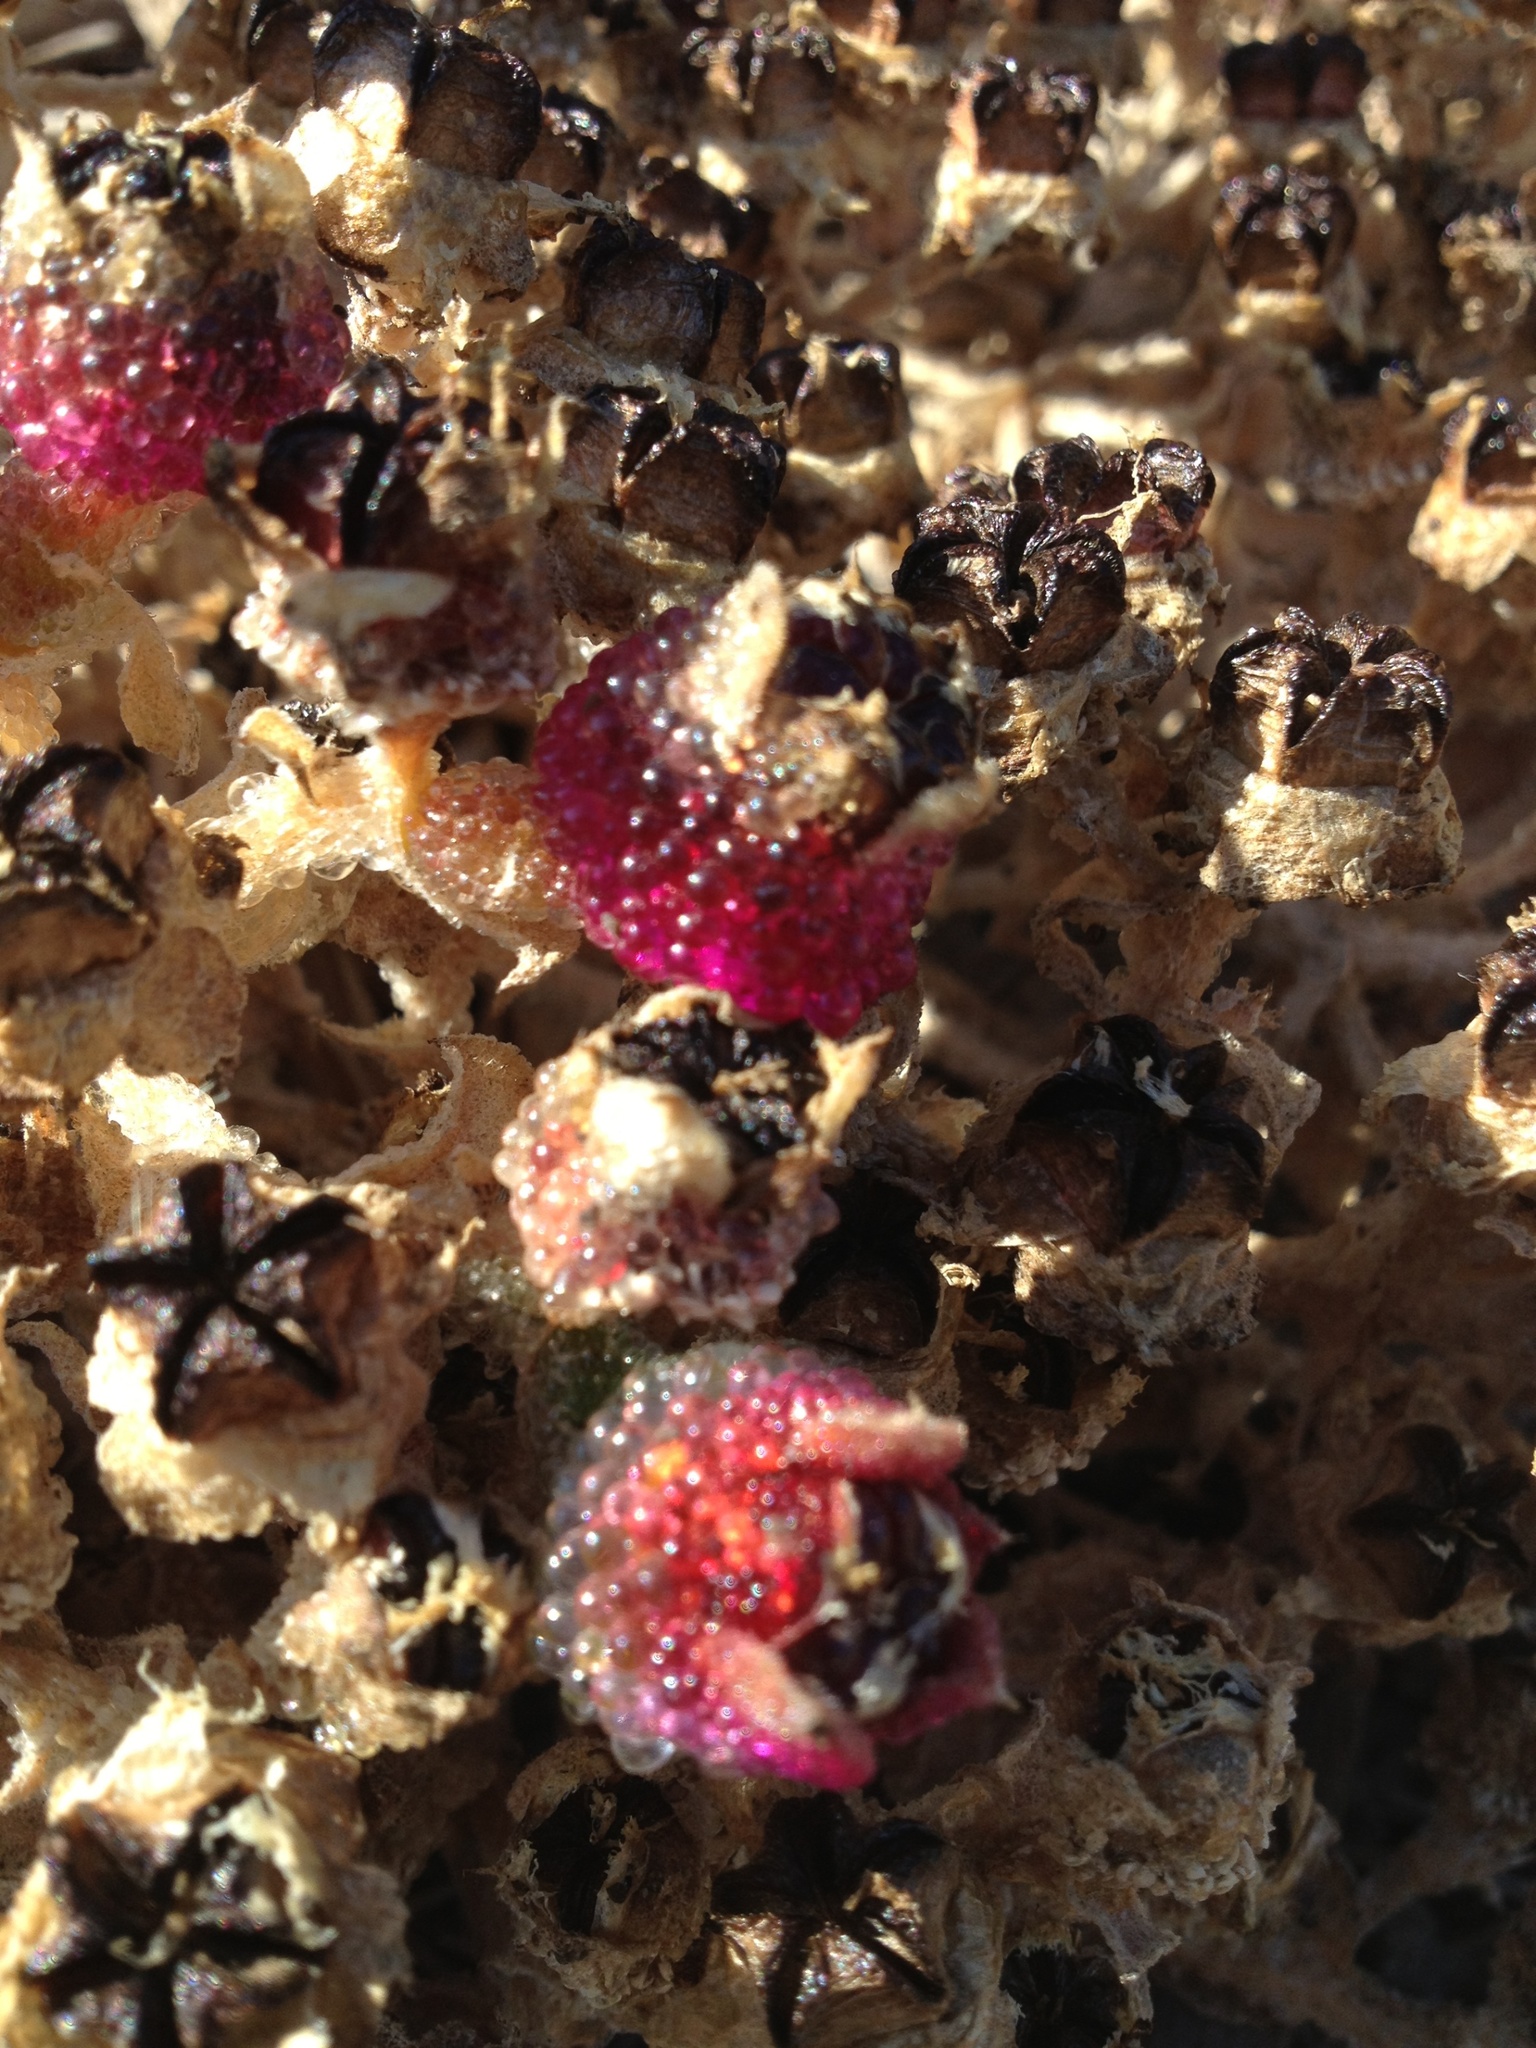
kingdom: Plantae
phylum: Tracheophyta
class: Magnoliopsida
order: Caryophyllales
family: Aizoaceae
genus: Mesembryanthemum
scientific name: Mesembryanthemum crystallinum
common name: Common iceplant
